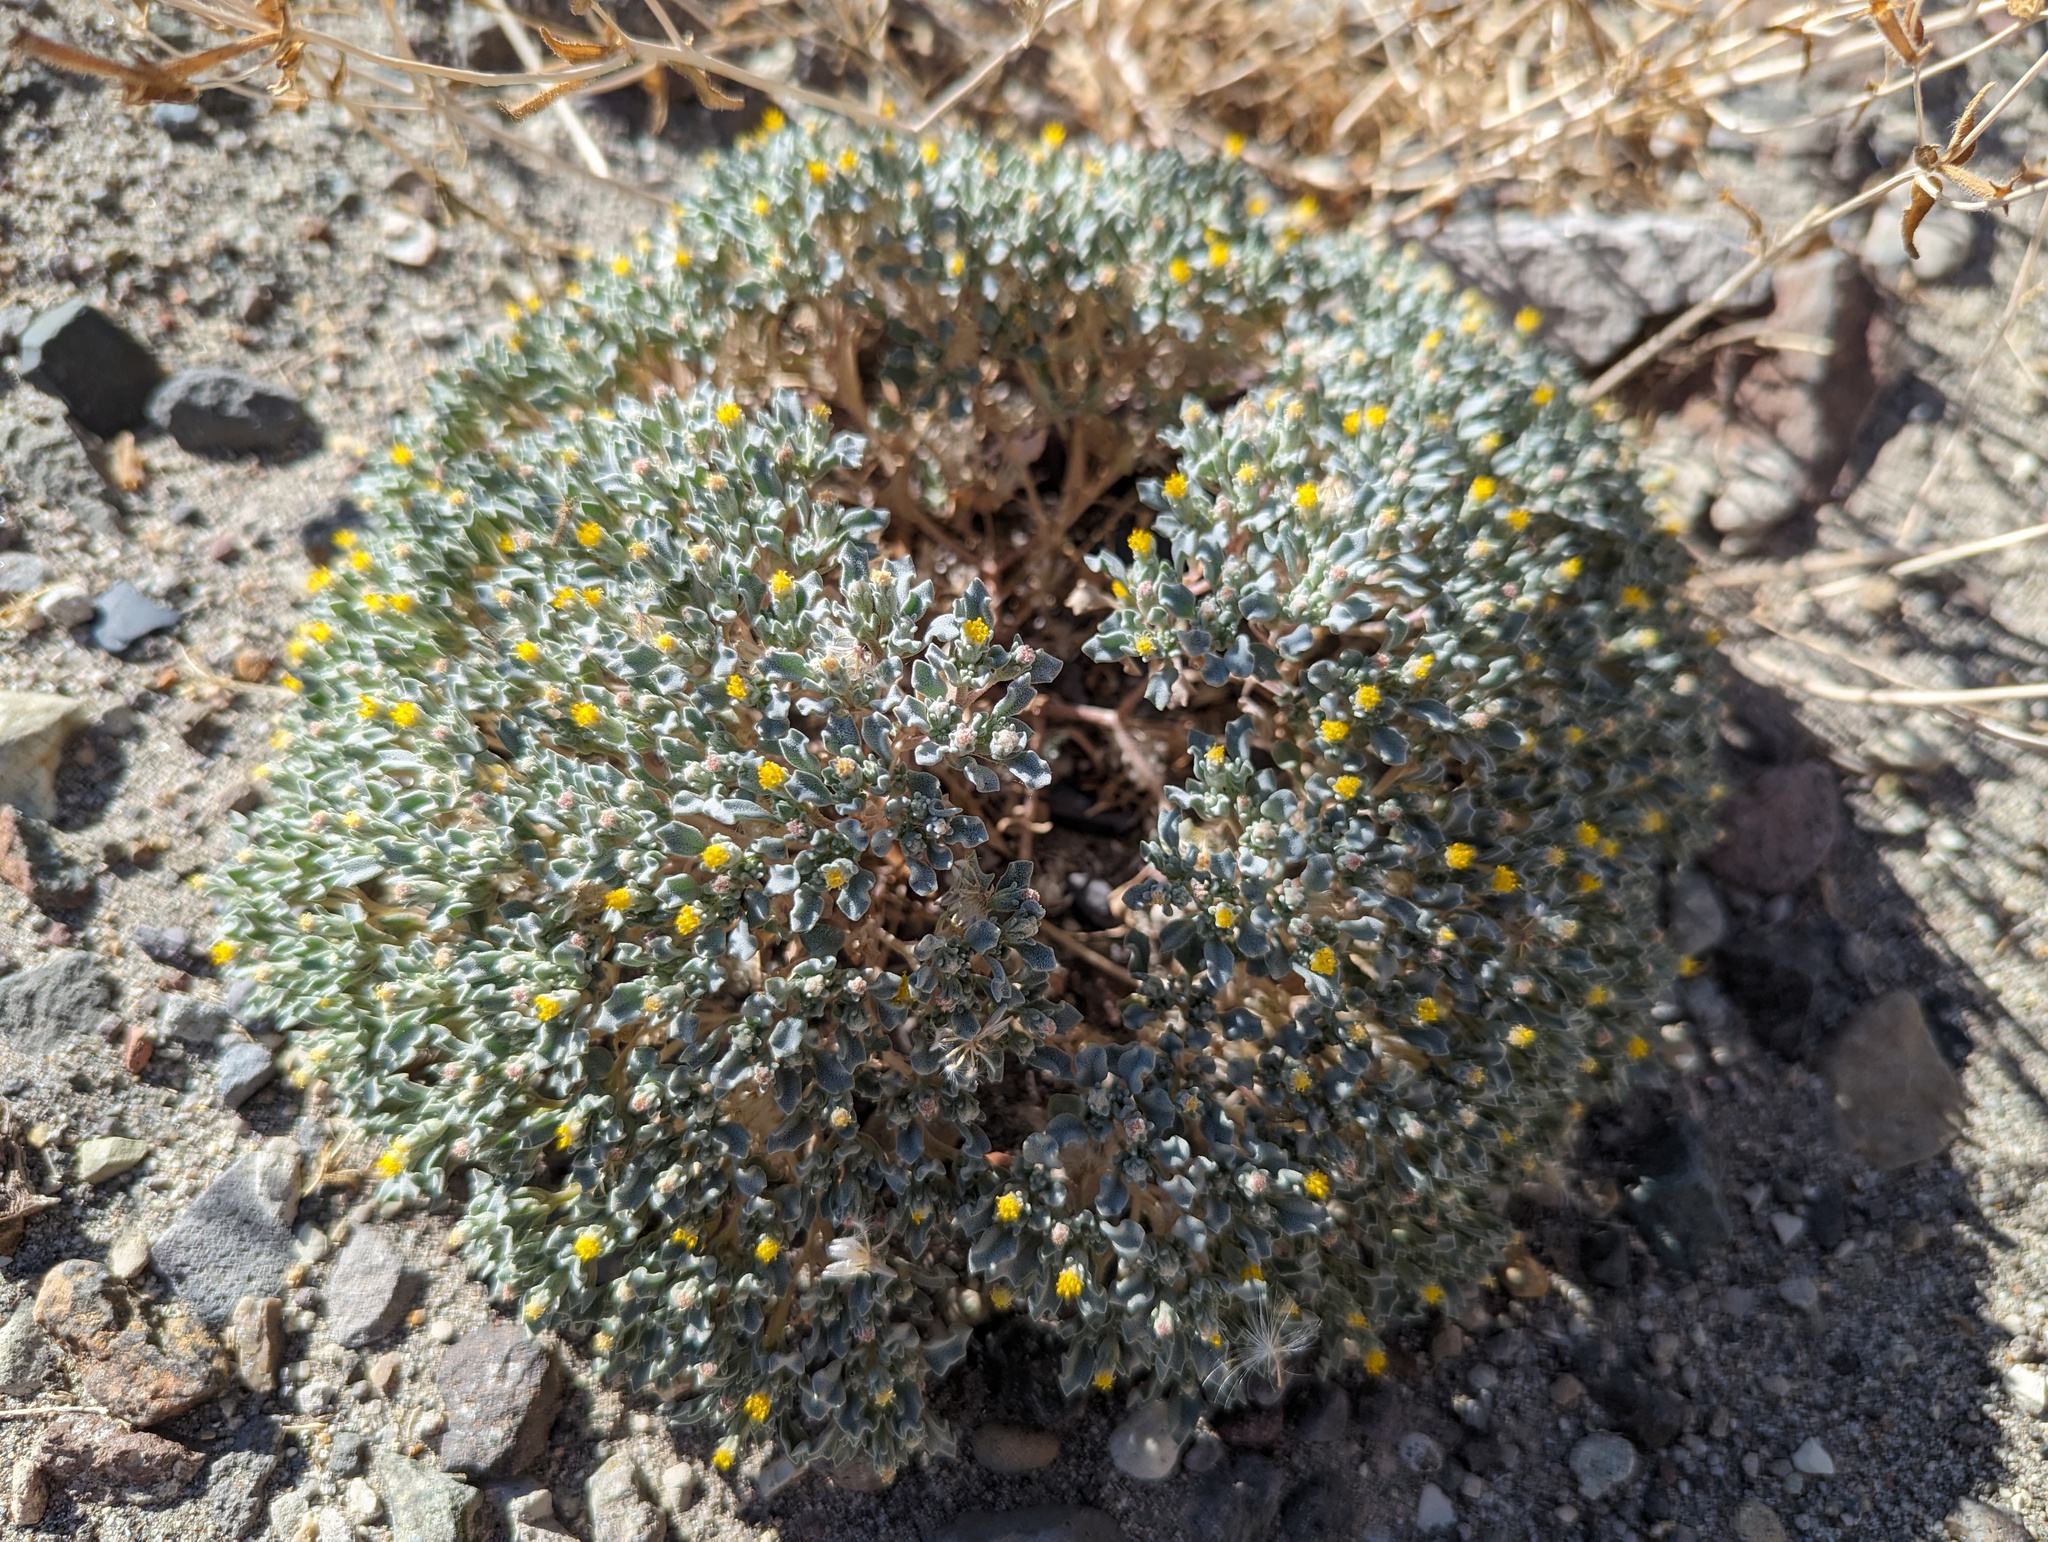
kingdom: Plantae
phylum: Tracheophyta
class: Magnoliopsida
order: Asterales
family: Asteraceae
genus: Psathyrotes
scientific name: Psathyrotes annua
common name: Mealy rosettes
